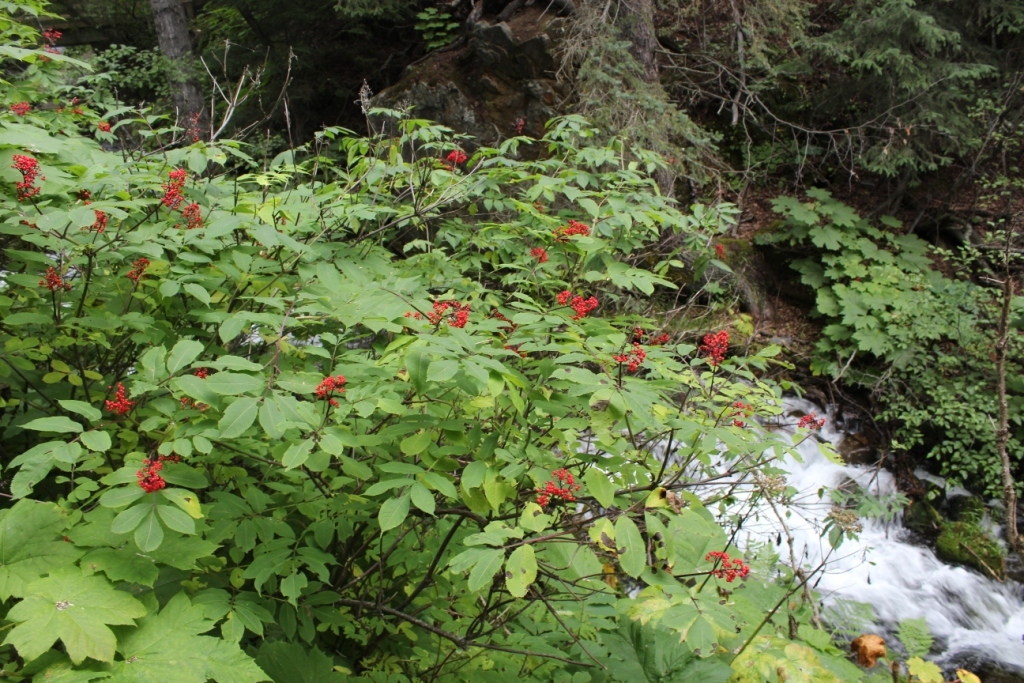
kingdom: Plantae
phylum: Tracheophyta
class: Magnoliopsida
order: Dipsacales
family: Viburnaceae
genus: Sambucus
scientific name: Sambucus racemosa
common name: Red-berried elder
